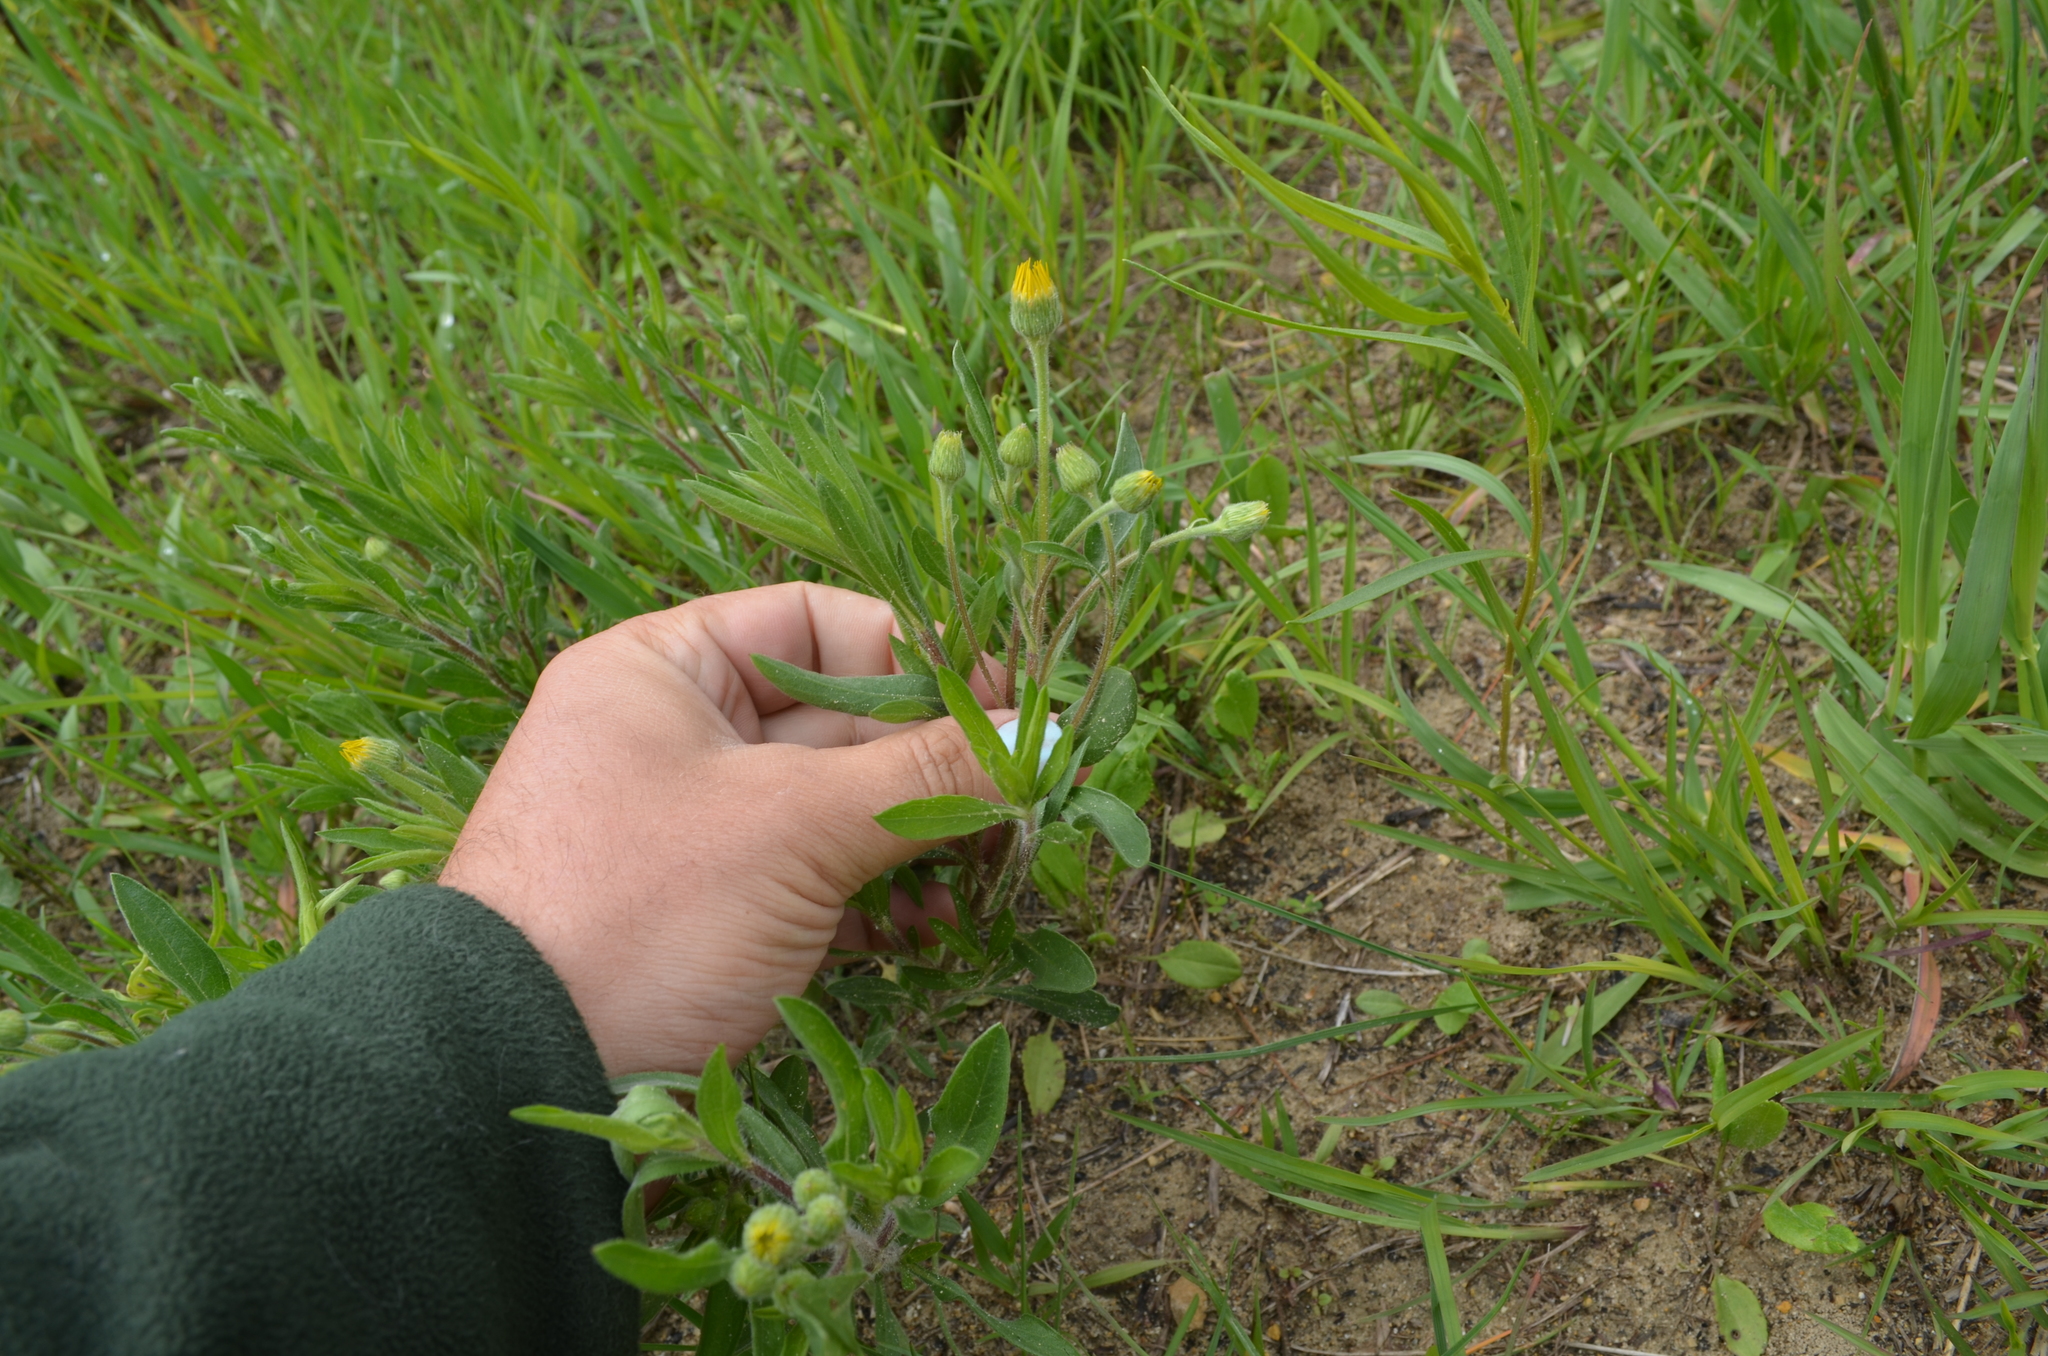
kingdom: Plantae
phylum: Tracheophyta
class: Magnoliopsida
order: Asterales
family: Asteraceae
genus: Heterotheca
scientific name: Heterotheca camporum
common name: Prairie golden-aster
